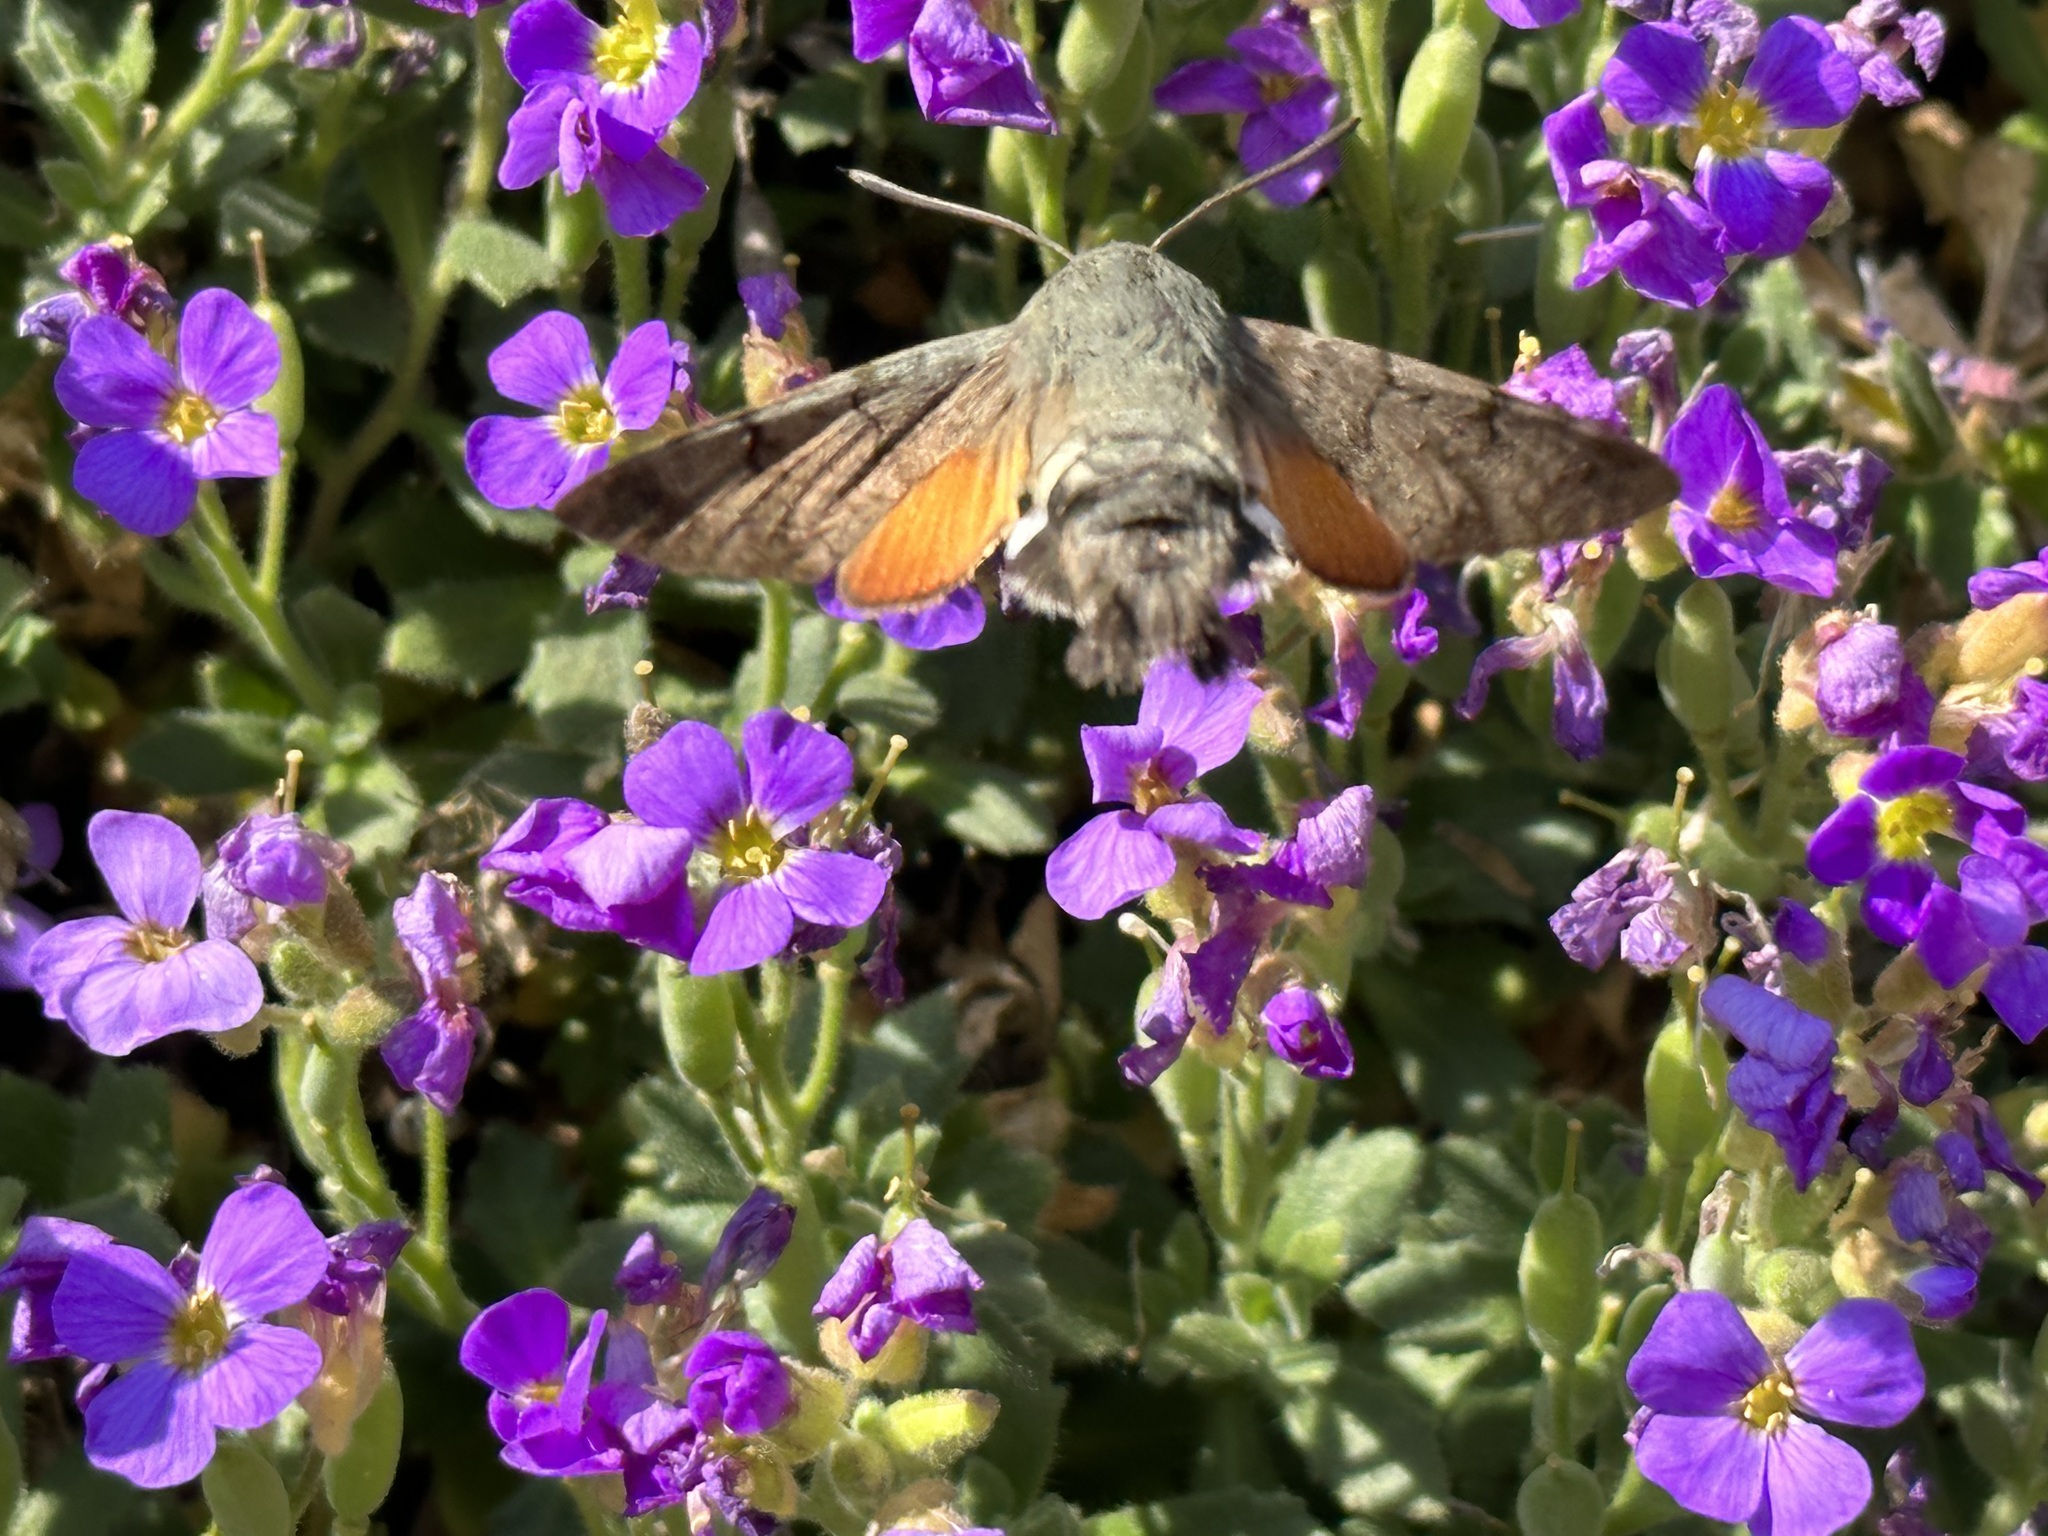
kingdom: Animalia
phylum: Arthropoda
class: Insecta
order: Lepidoptera
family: Sphingidae
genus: Macroglossum
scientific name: Macroglossum stellatarum
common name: Humming-bird hawk-moth
